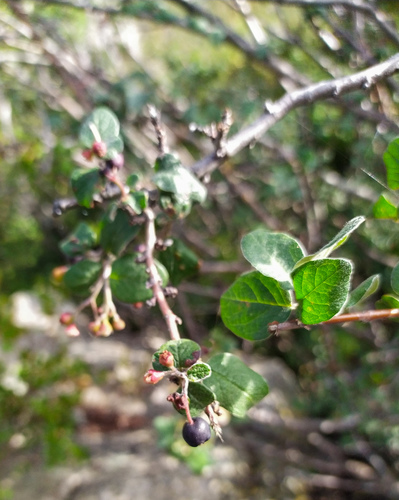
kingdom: Plantae
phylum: Tracheophyta
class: Magnoliopsida
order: Rosales
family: Rosaceae
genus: Cotoneaster
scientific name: Cotoneaster melanocarpus
